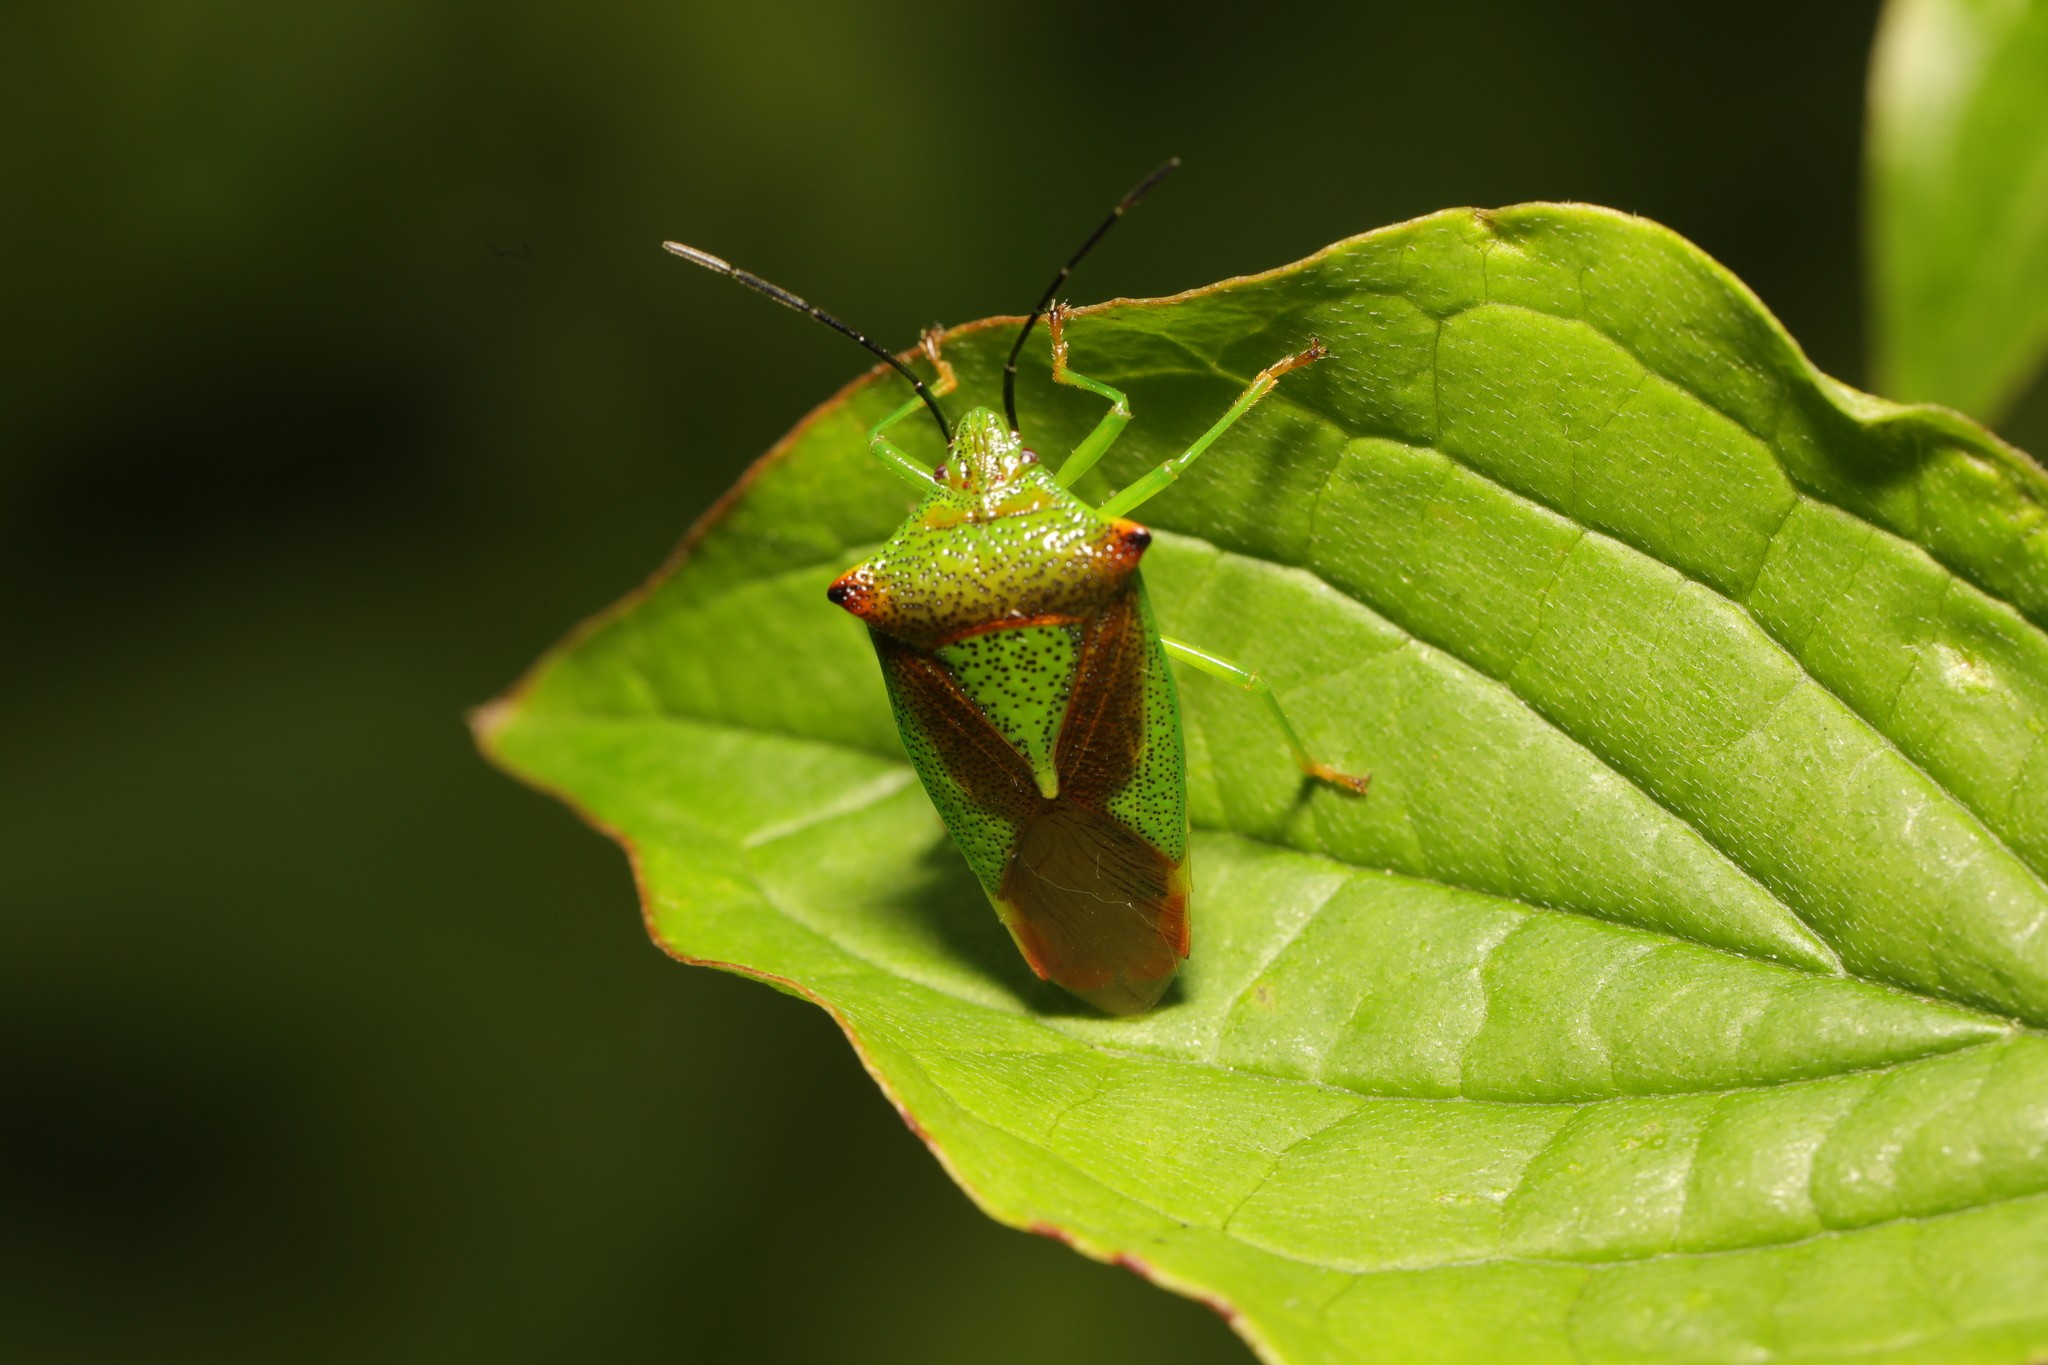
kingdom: Animalia
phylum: Arthropoda
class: Insecta
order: Hemiptera
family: Acanthosomatidae
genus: Acanthosoma
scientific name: Acanthosoma haemorrhoidale
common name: Hawthorn shieldbug
